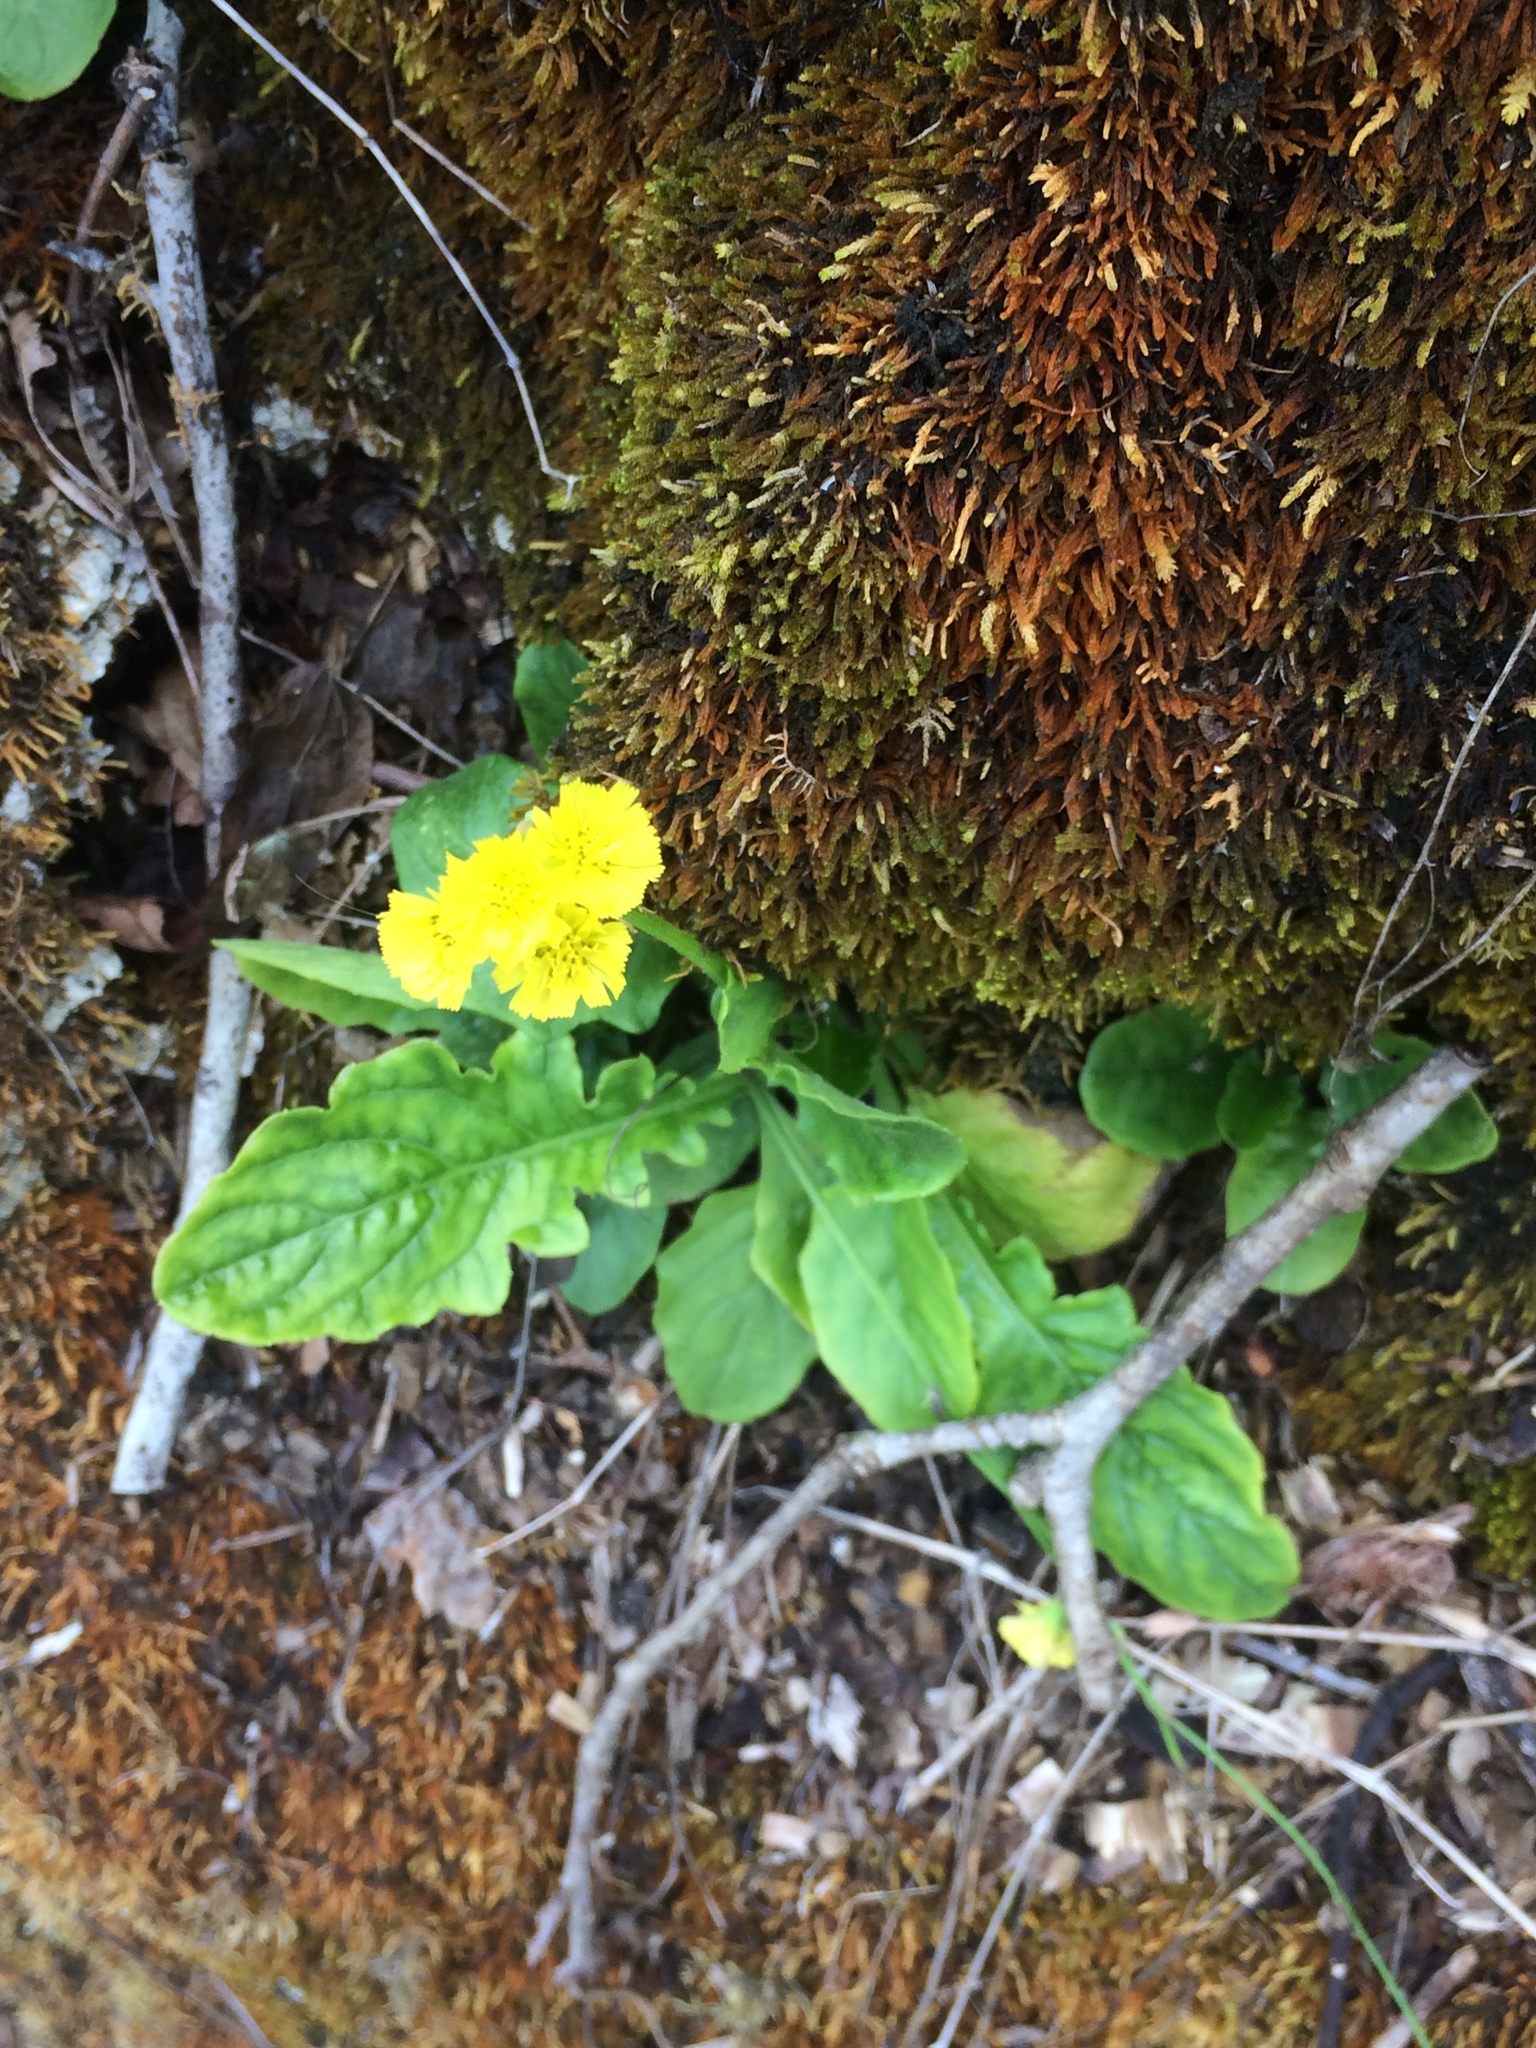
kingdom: Plantae
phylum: Tracheophyta
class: Magnoliopsida
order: Asterales
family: Asteraceae
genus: Youngia
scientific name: Youngia japonica
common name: Oriental false hawksbeard
